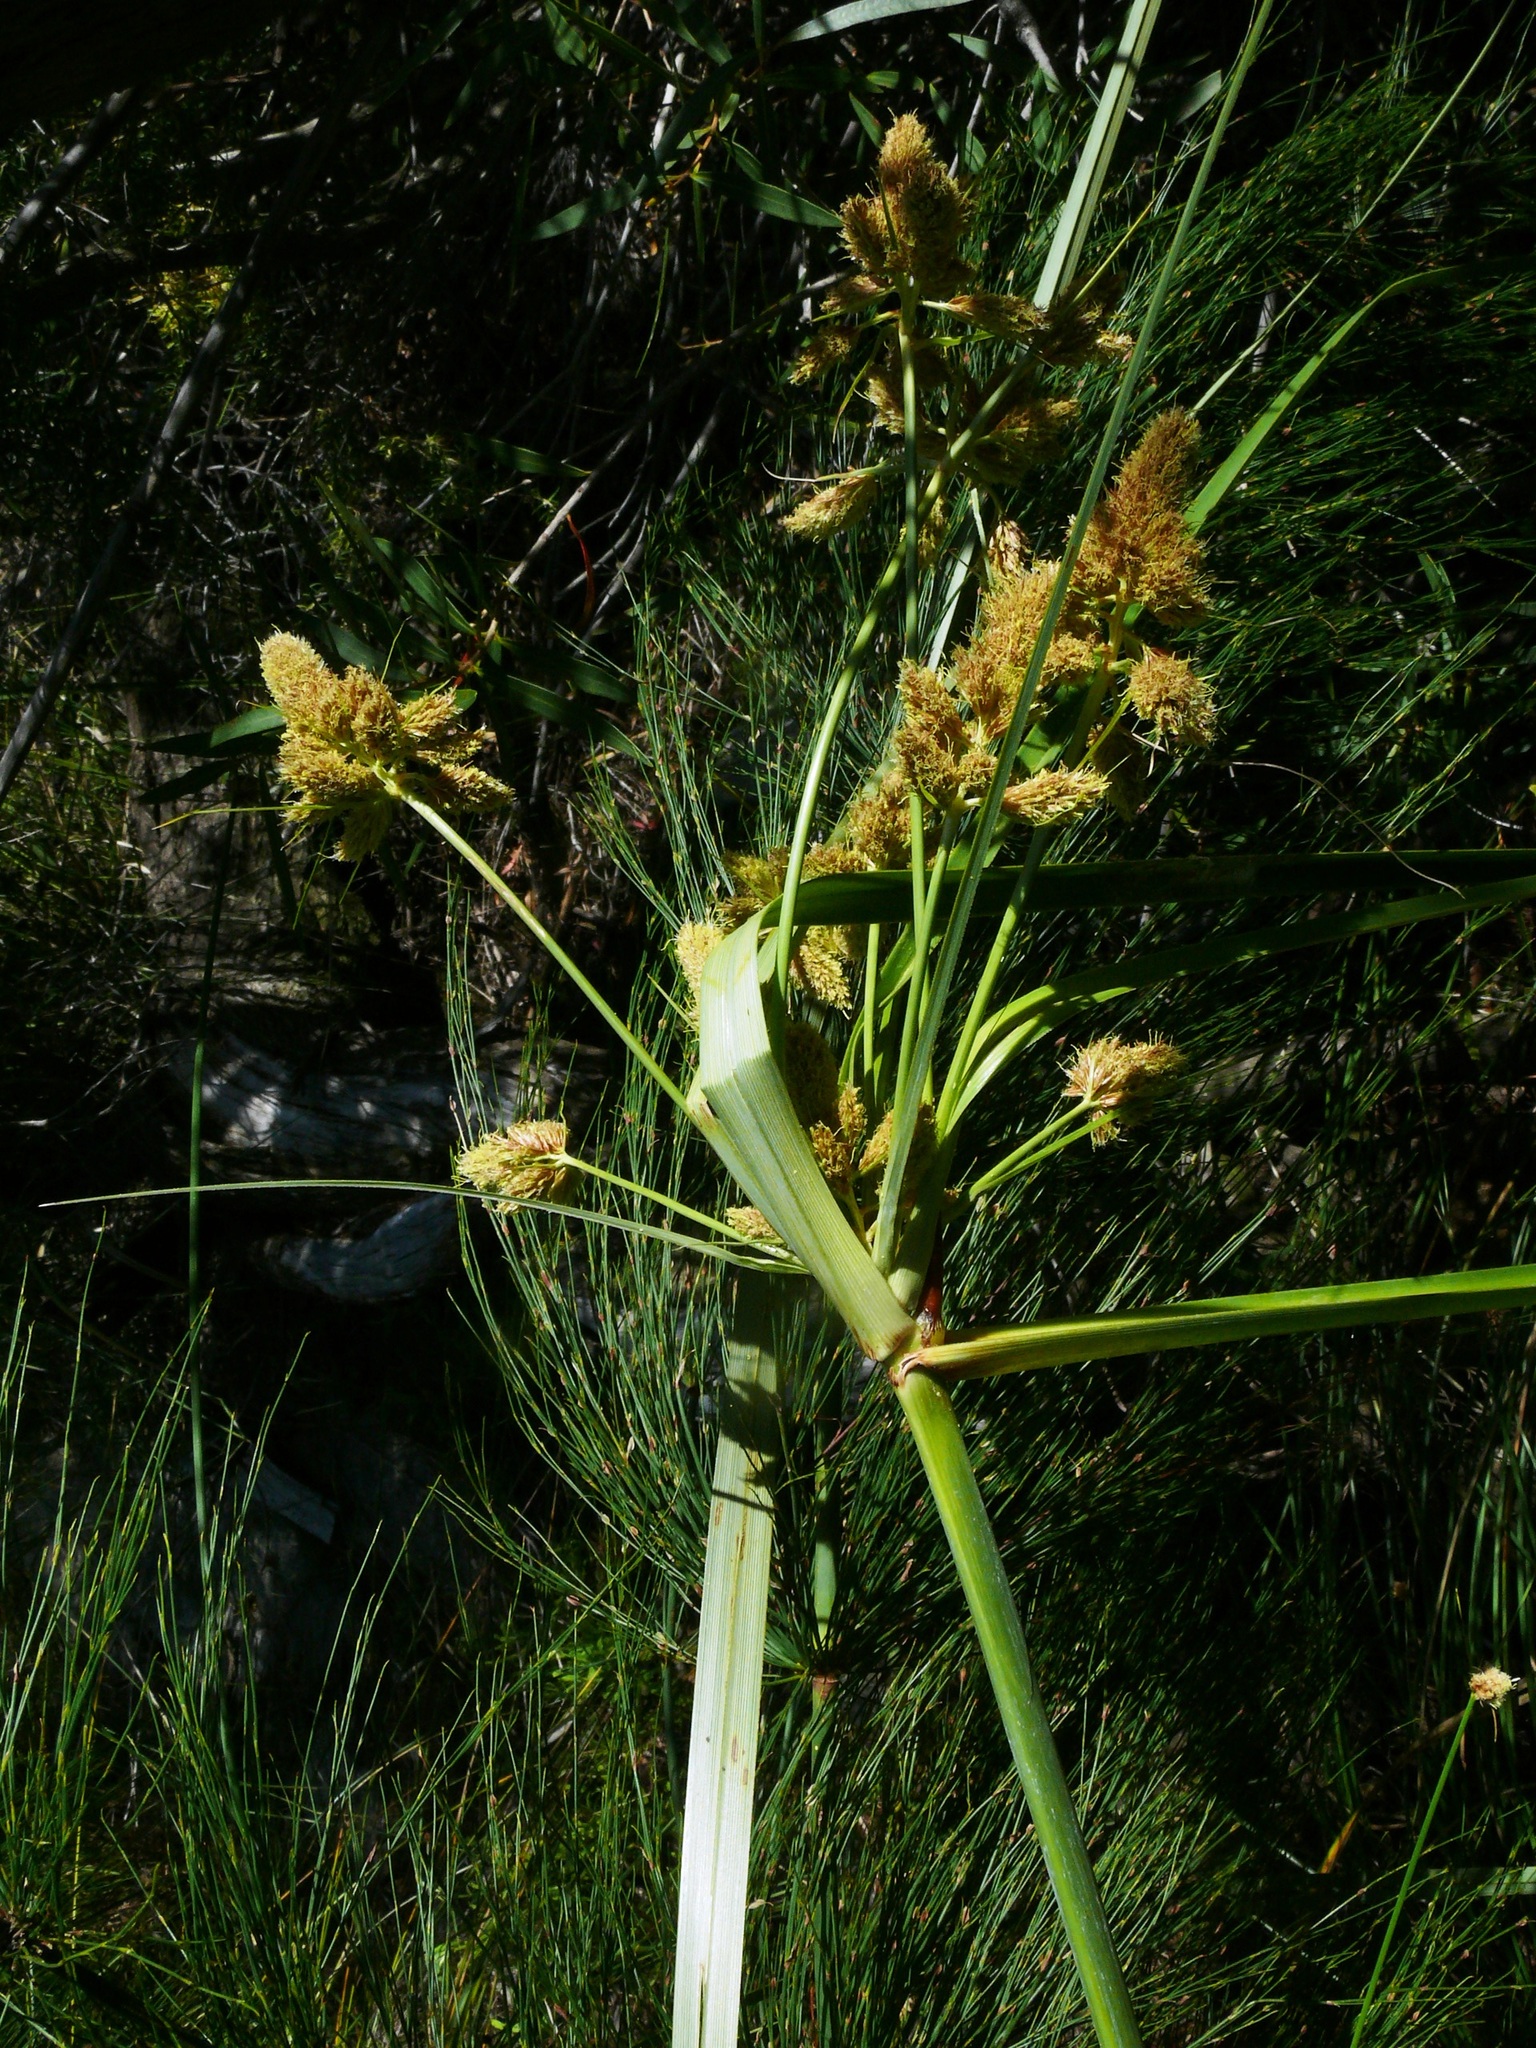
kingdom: Plantae
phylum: Tracheophyta
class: Liliopsida
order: Poales
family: Cyperaceae
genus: Cyperus
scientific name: Cyperus thunbergii
